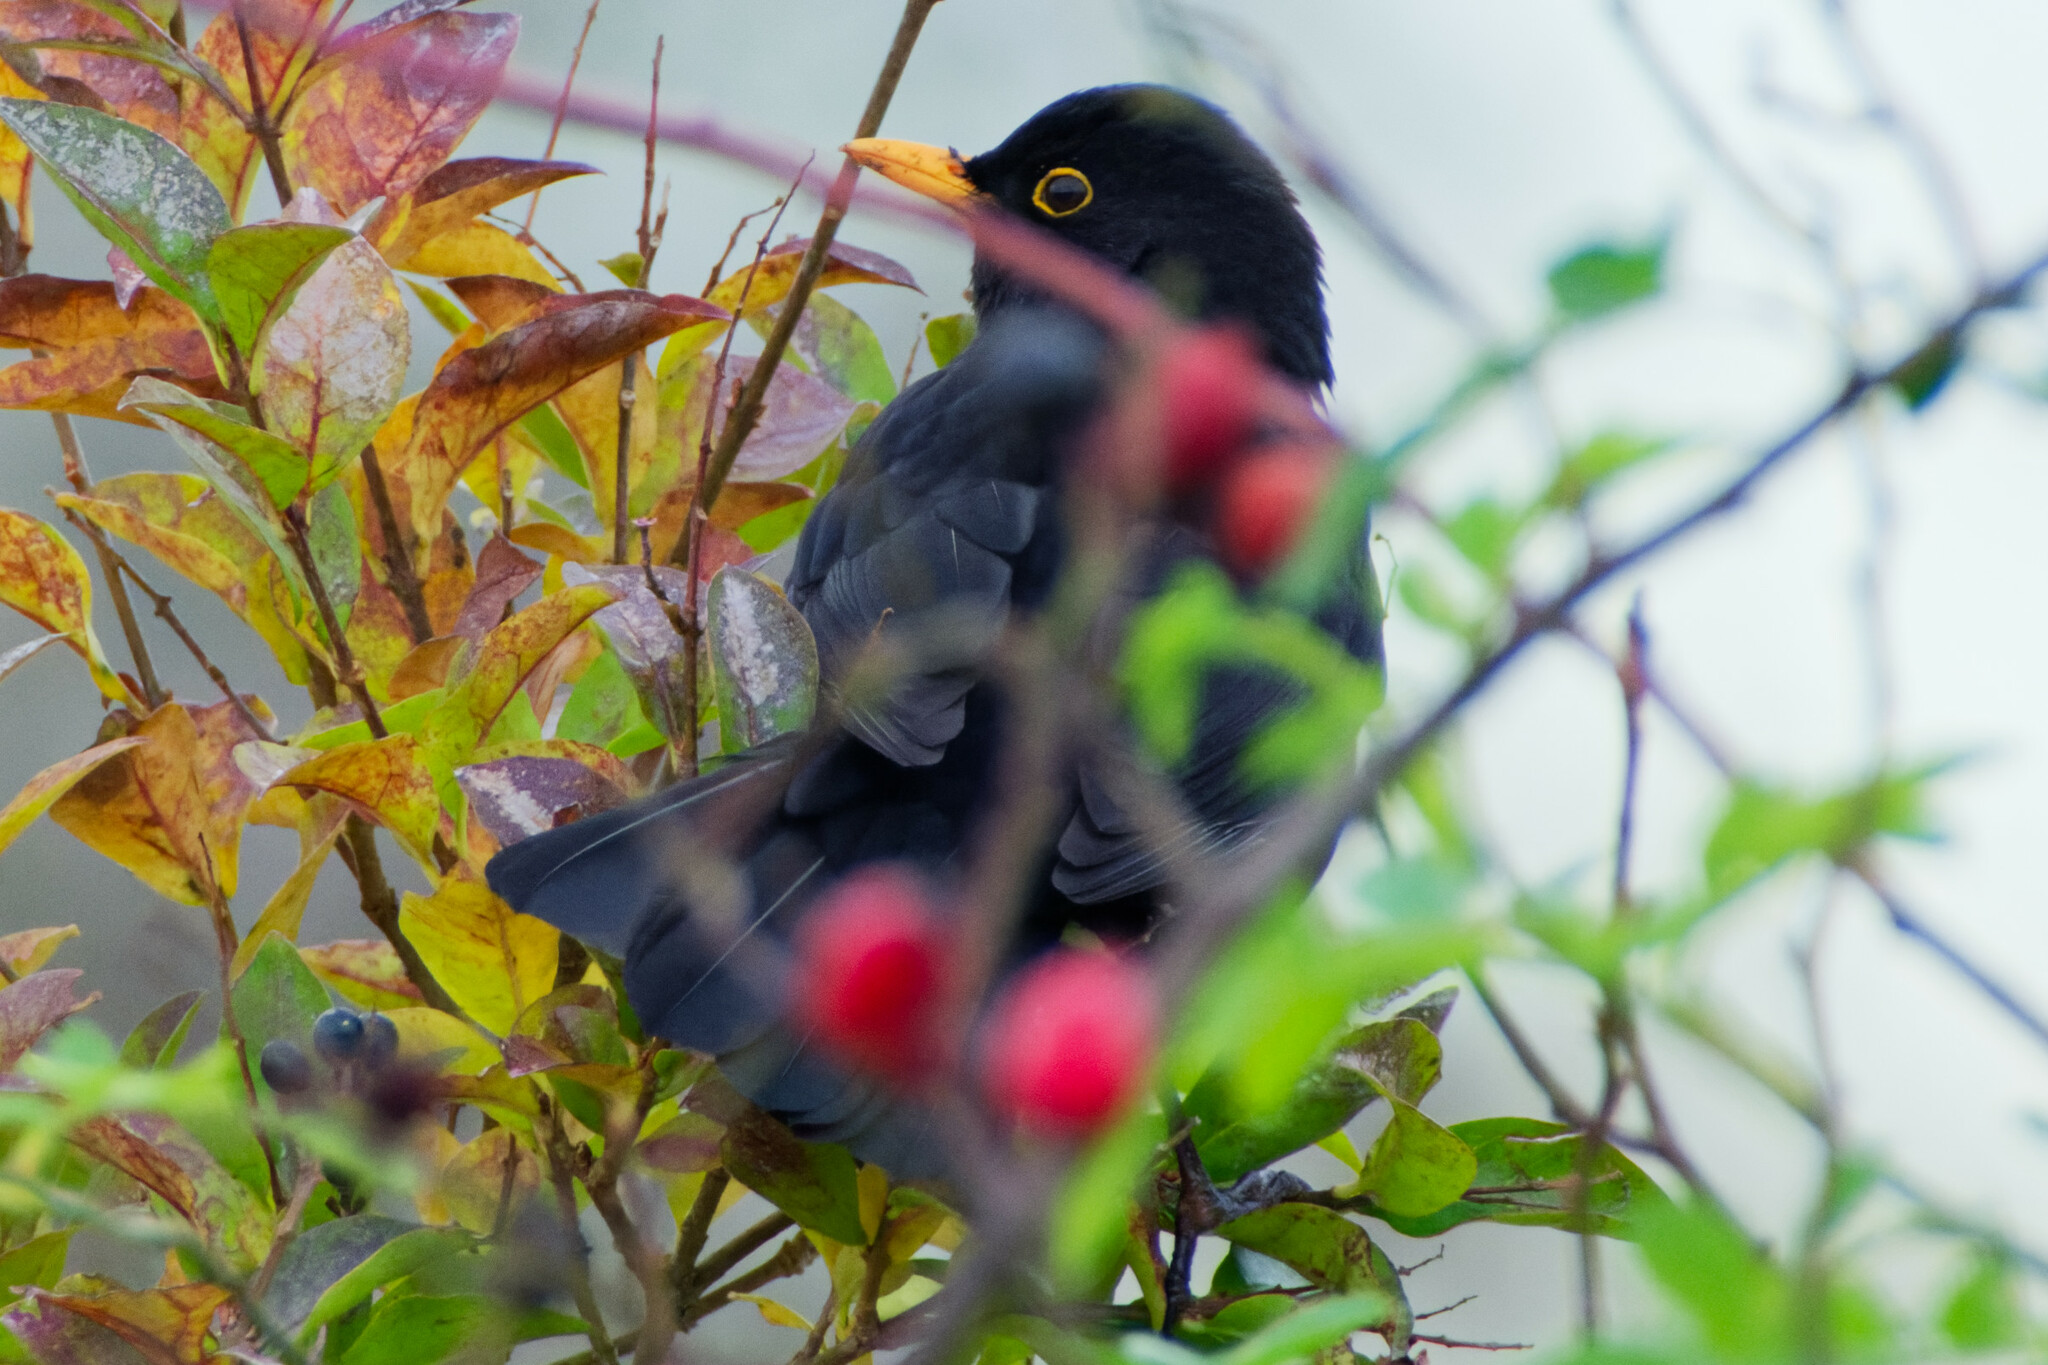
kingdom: Animalia
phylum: Chordata
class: Aves
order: Passeriformes
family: Turdidae
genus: Turdus
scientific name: Turdus merula
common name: Common blackbird
